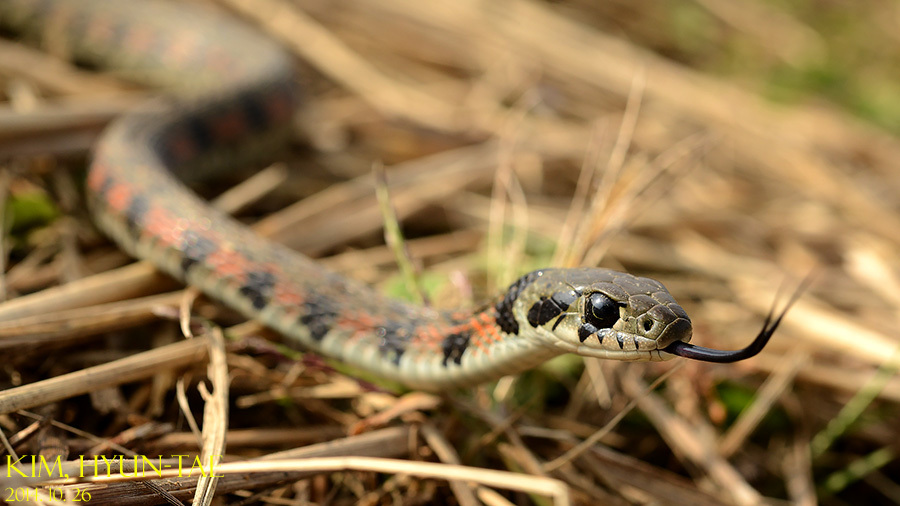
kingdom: Animalia
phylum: Chordata
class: Squamata
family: Colubridae
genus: Rhabdophis
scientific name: Rhabdophis tigrinus
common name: Tiger keelback
